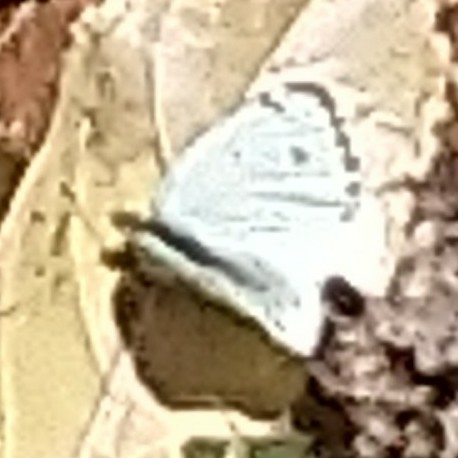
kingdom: Animalia
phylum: Arthropoda
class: Insecta
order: Lepidoptera
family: Pieridae
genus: Dixeia
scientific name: Dixeia charina
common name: African small white
